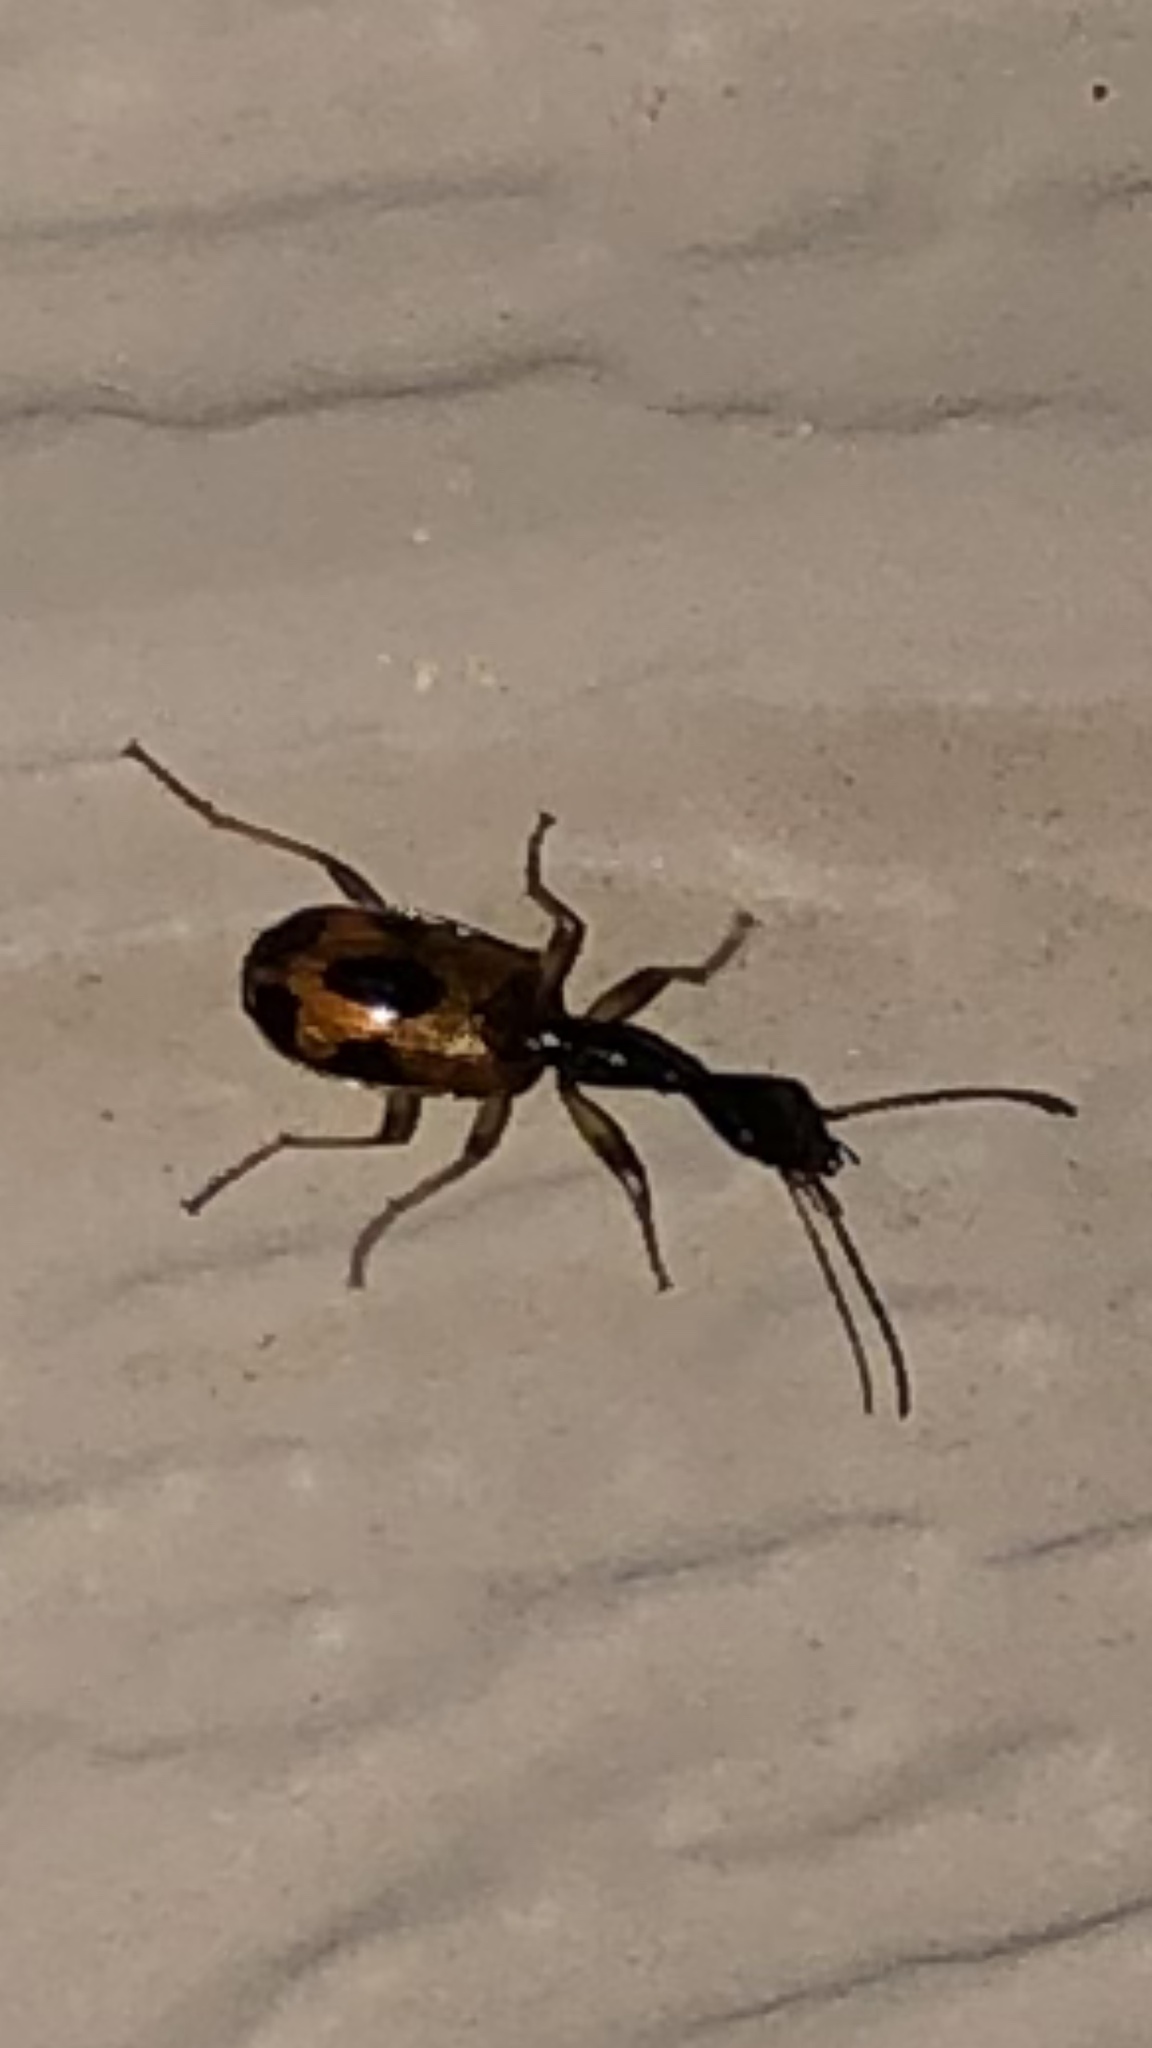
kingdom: Animalia
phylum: Arthropoda
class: Insecta
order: Coleoptera
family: Carabidae
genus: Colliuris
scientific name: Colliuris pensylvanica
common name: Long-necked ground beetle
